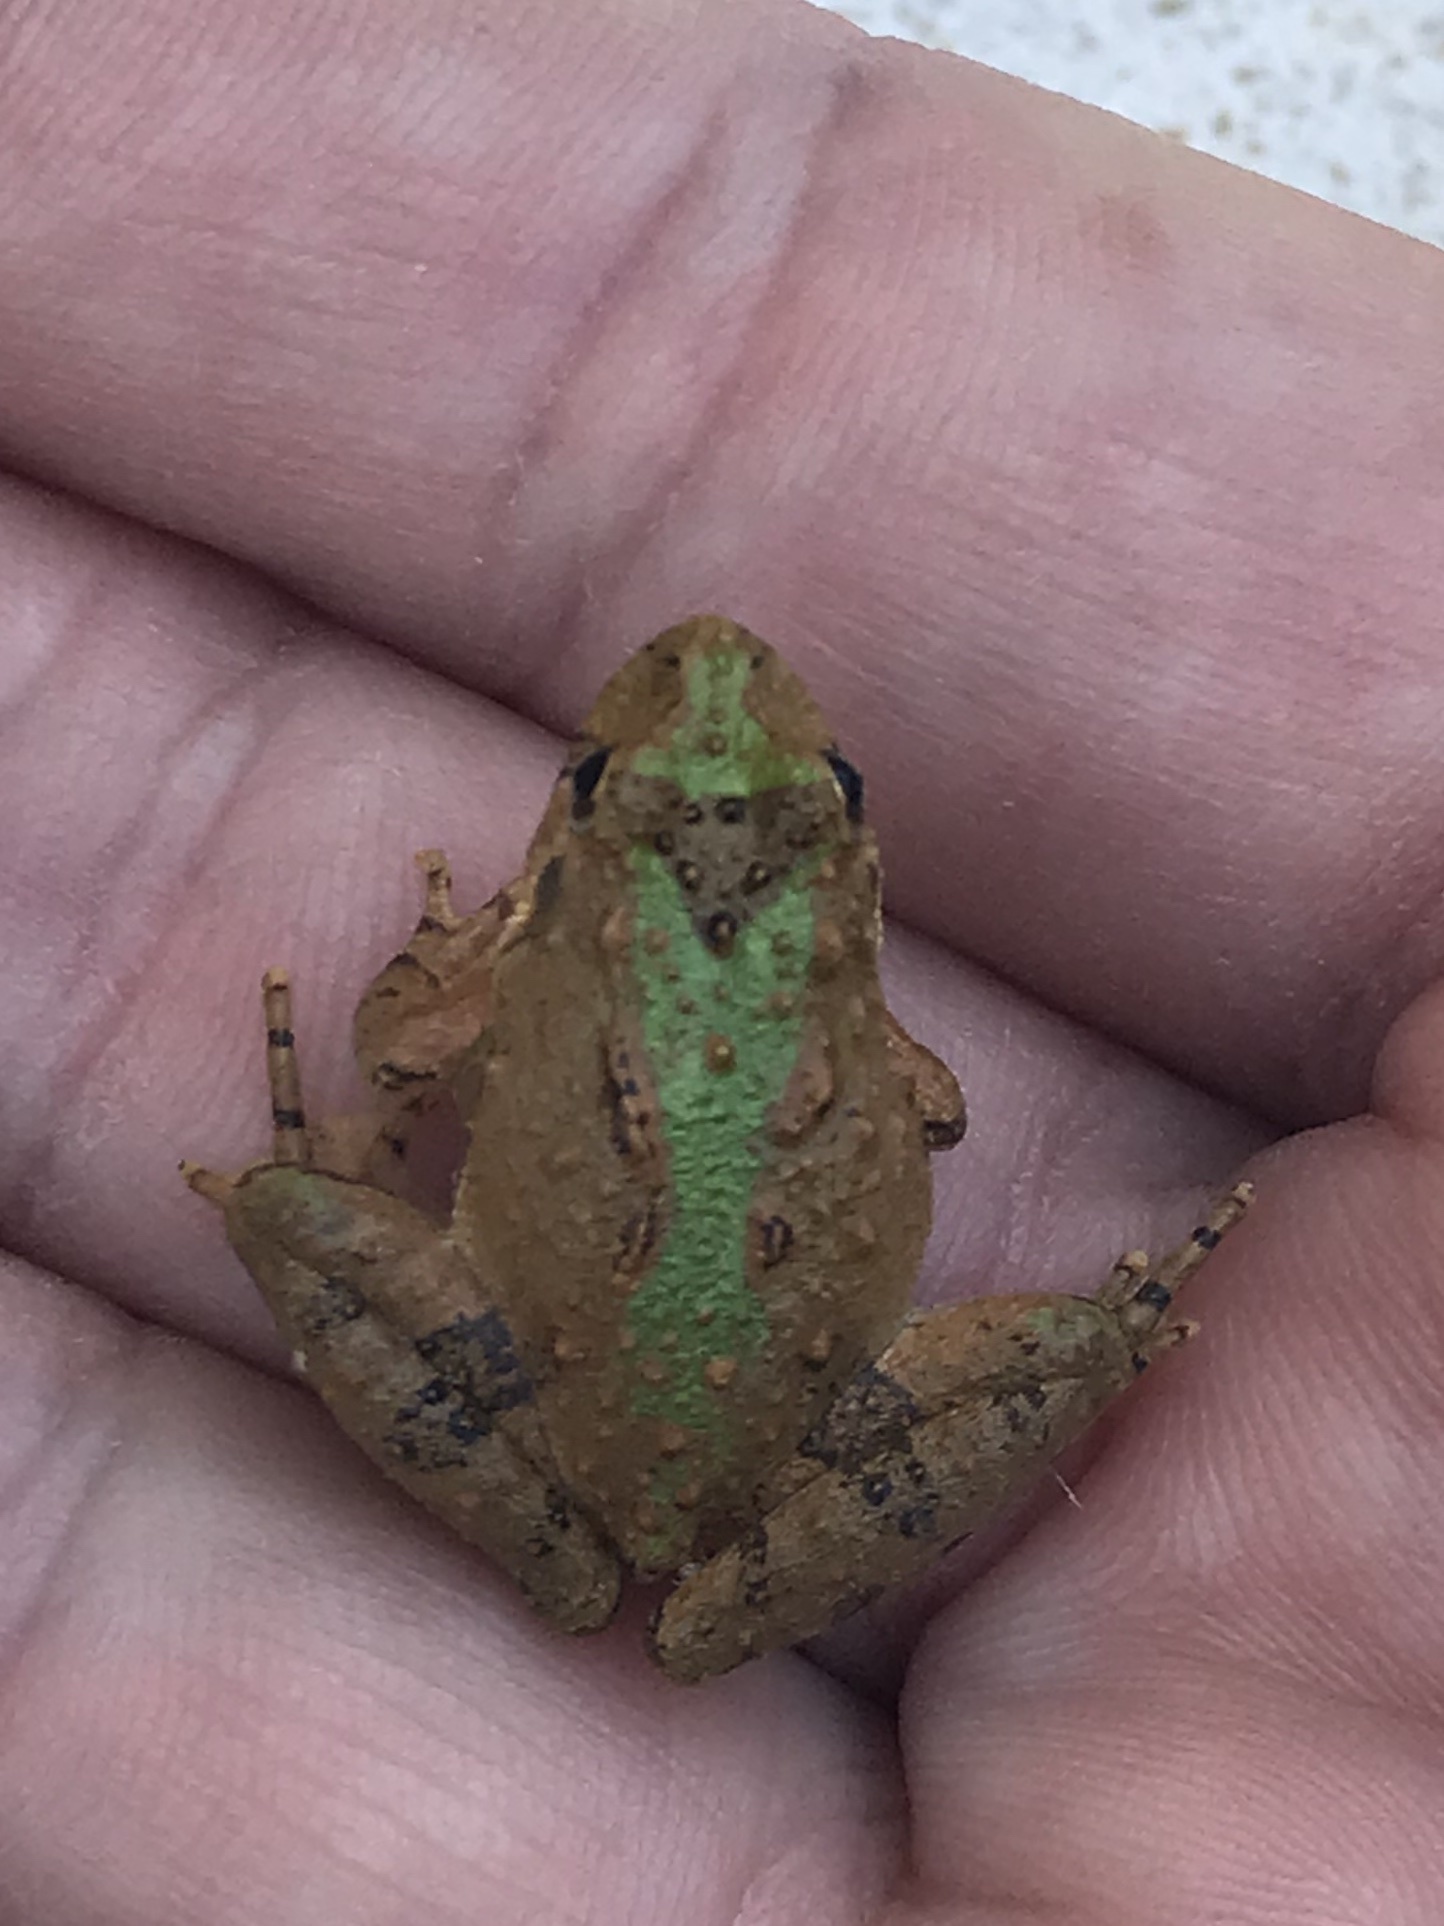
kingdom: Animalia
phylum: Chordata
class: Amphibia
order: Anura
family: Hylidae
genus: Acris
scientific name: Acris crepitans
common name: Northern cricket frog
